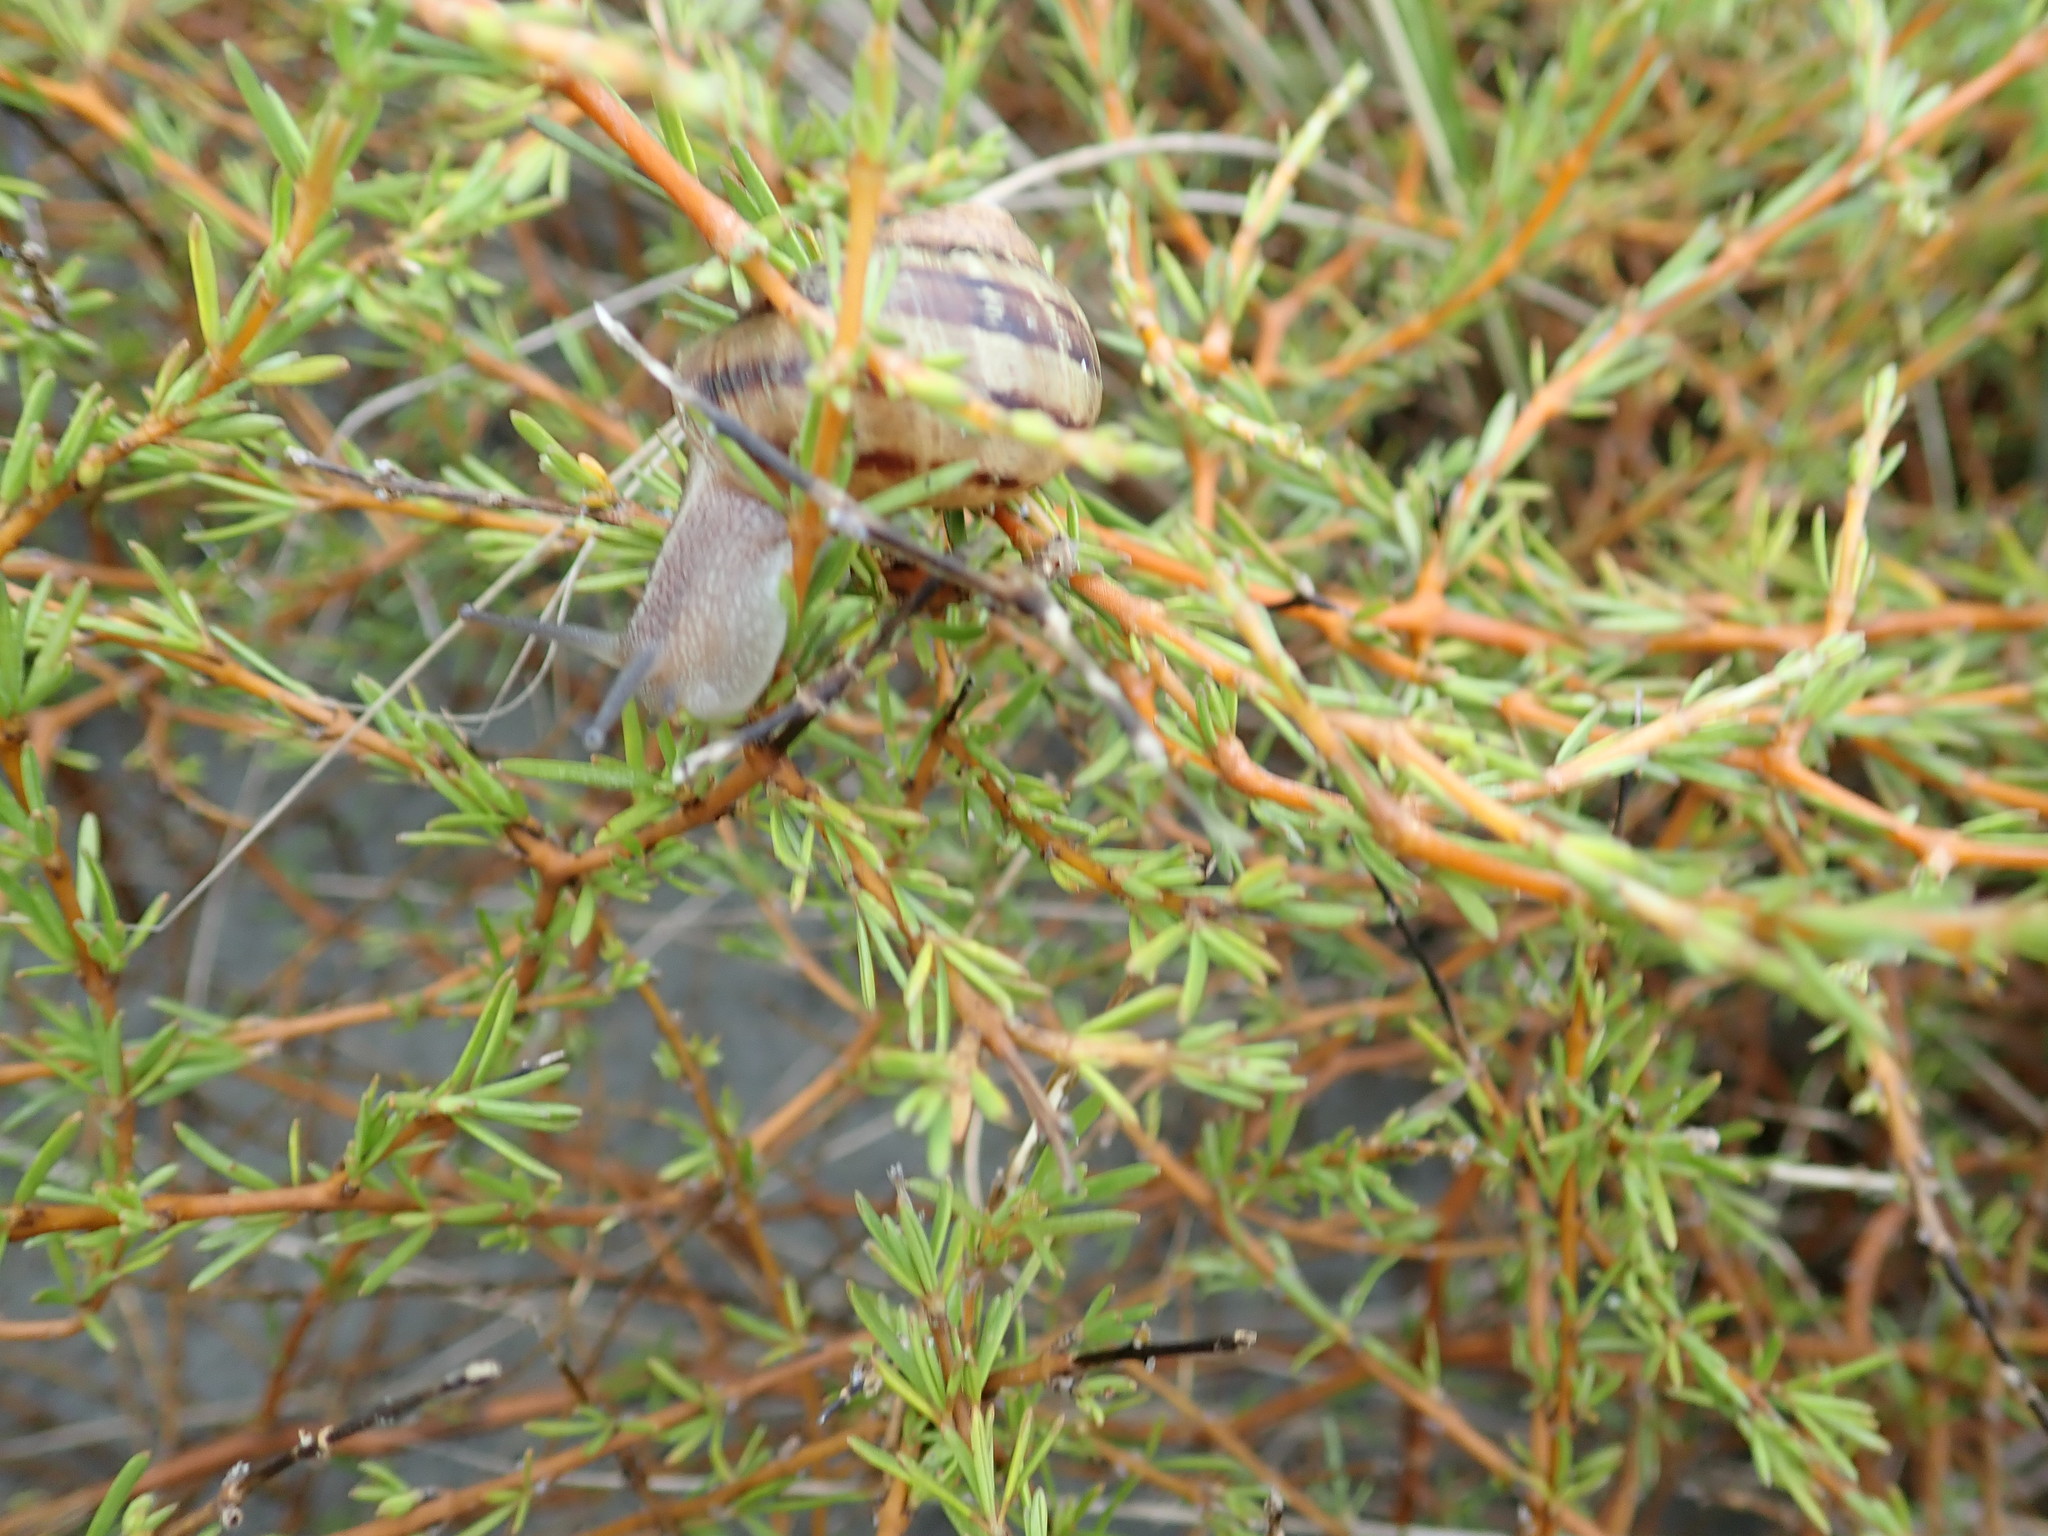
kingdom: Animalia
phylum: Mollusca
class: Gastropoda
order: Stylommatophora
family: Helicidae
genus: Cornu
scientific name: Cornu aspersum
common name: Brown garden snail
